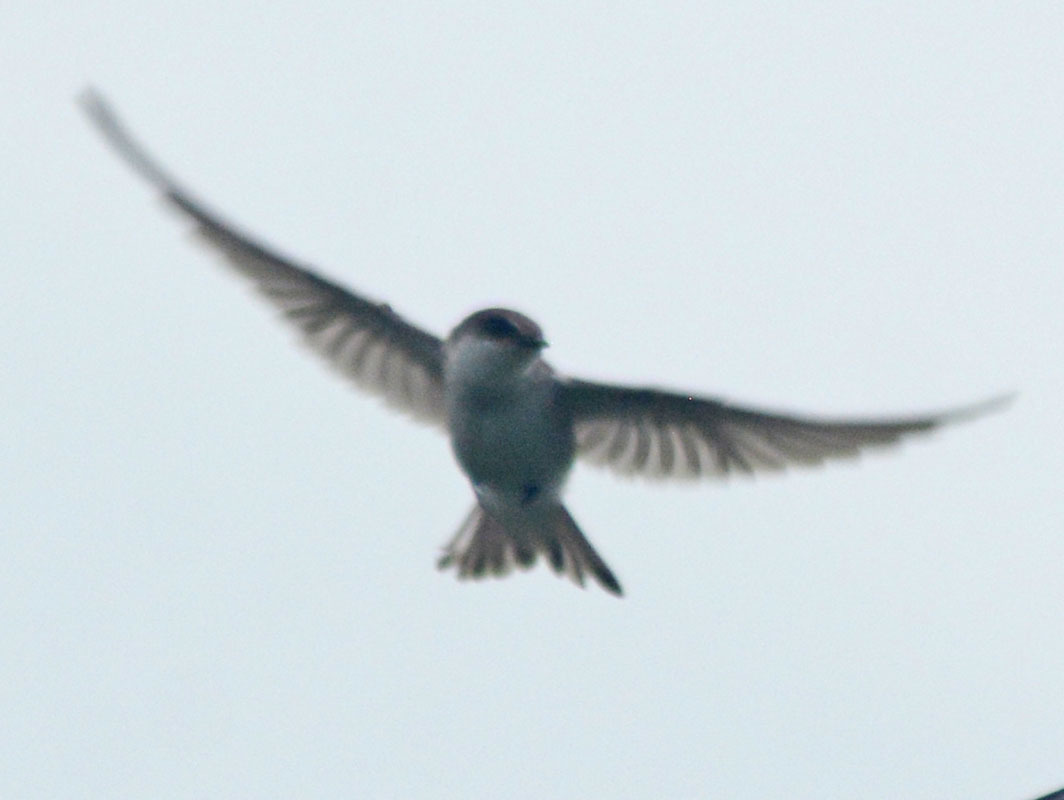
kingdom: Animalia
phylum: Chordata
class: Aves
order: Passeriformes
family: Hirundinidae
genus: Tachycineta
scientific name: Tachycineta albilinea
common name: Mangrove swallow
